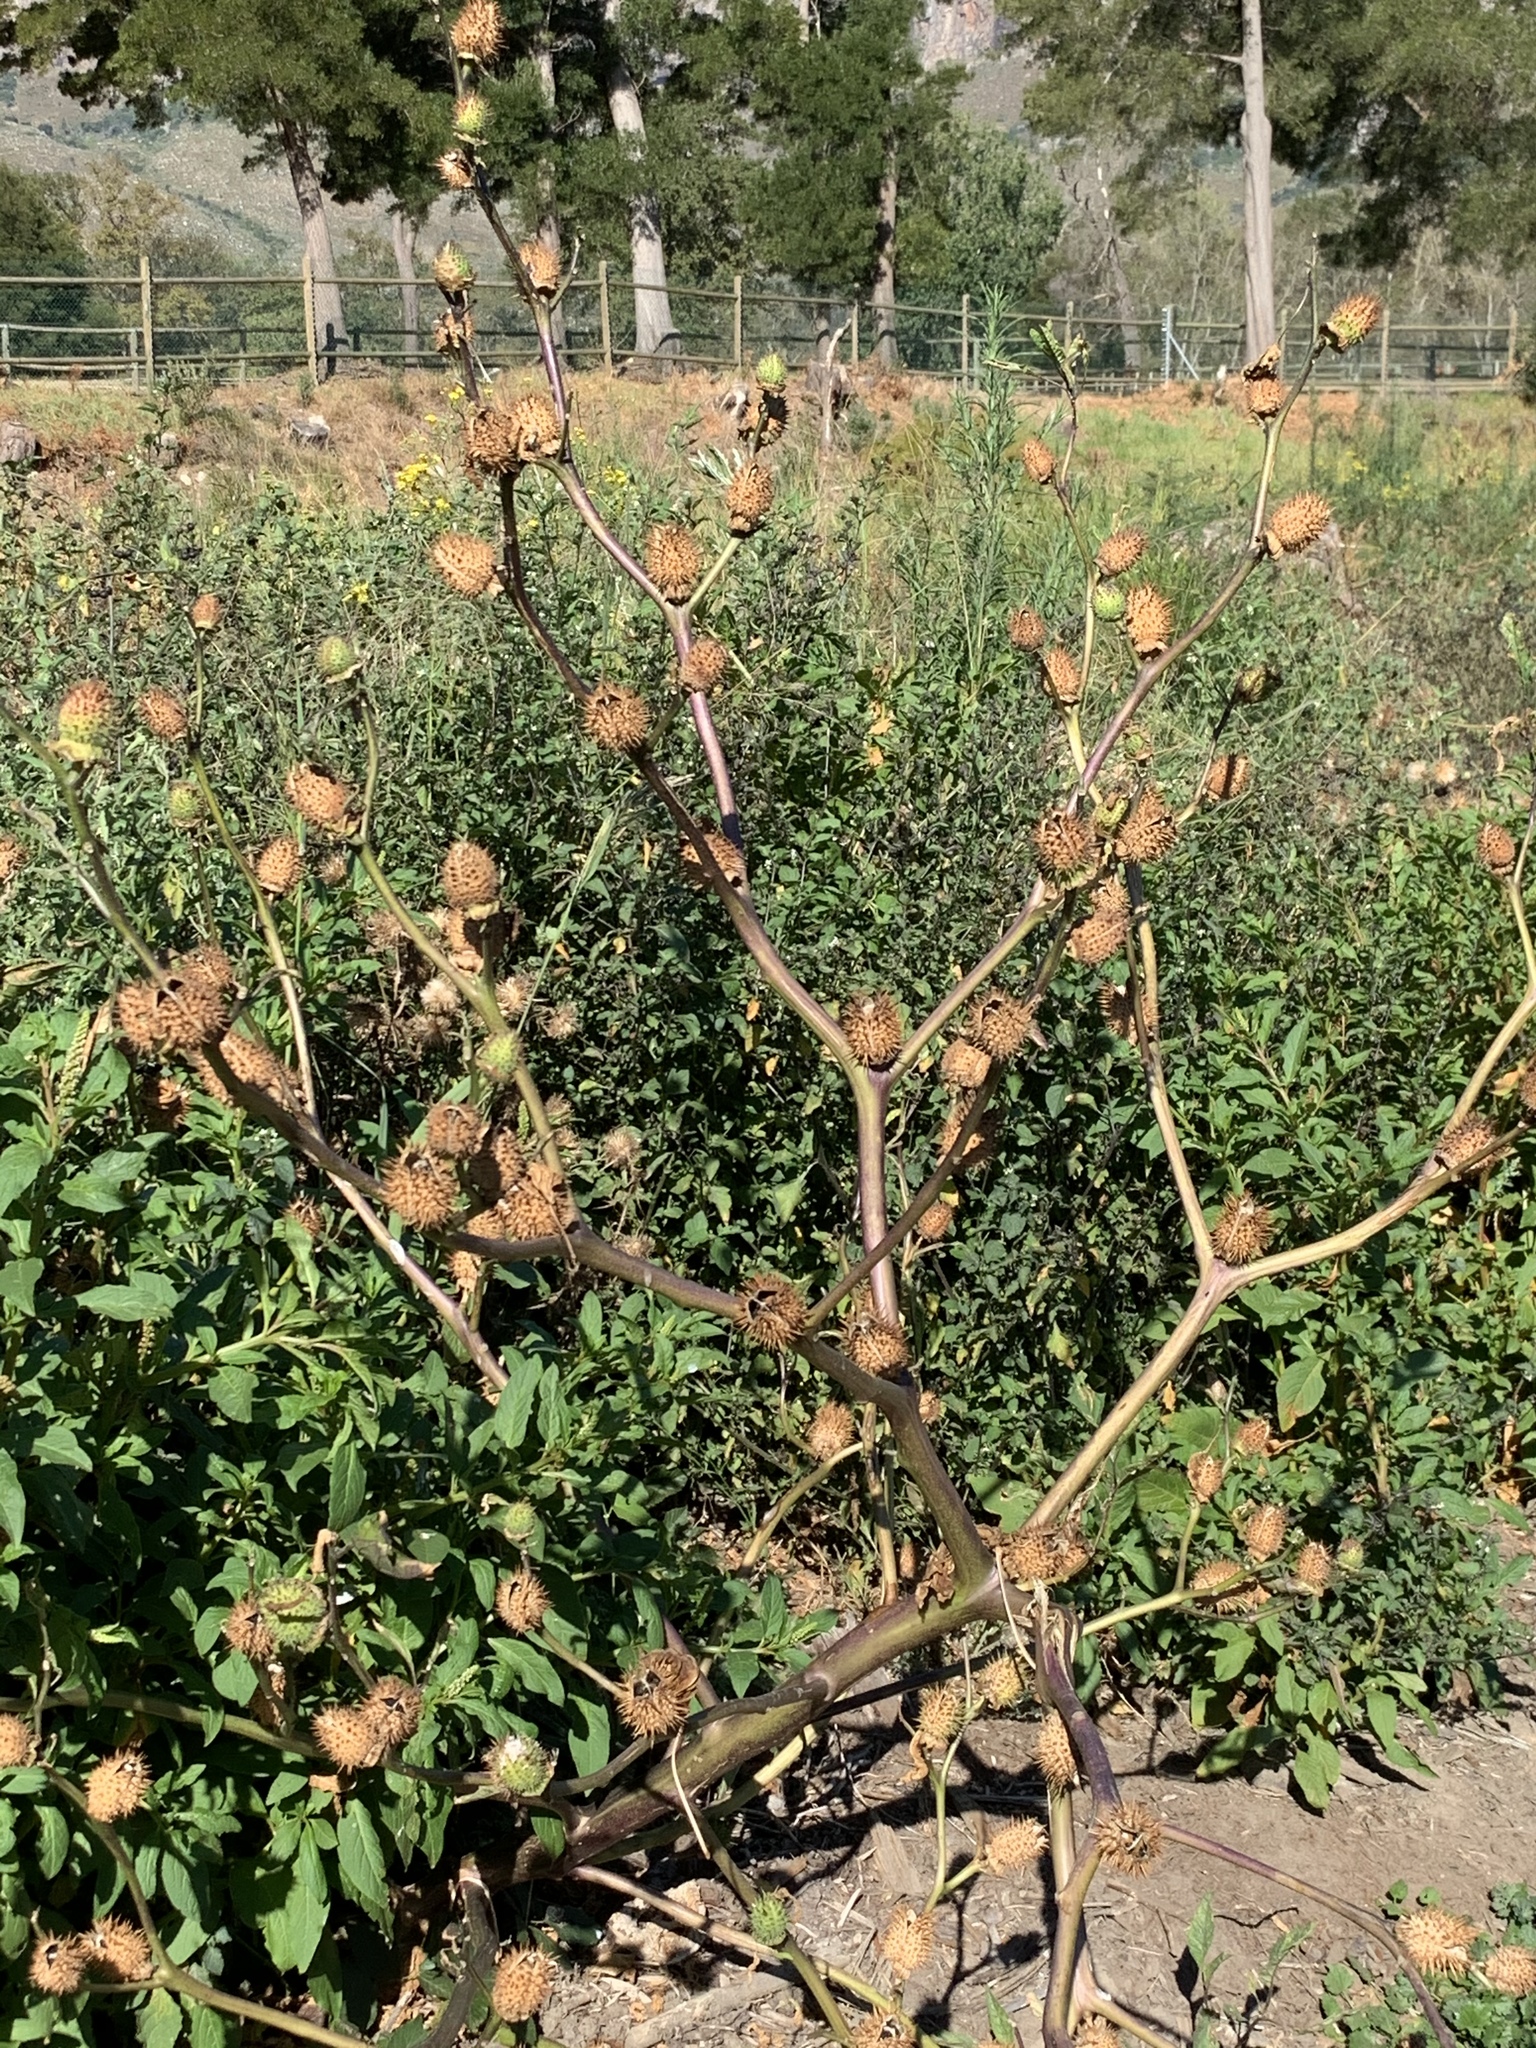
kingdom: Plantae
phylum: Tracheophyta
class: Magnoliopsida
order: Solanales
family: Solanaceae
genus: Datura
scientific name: Datura stramonium
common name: Thorn-apple
